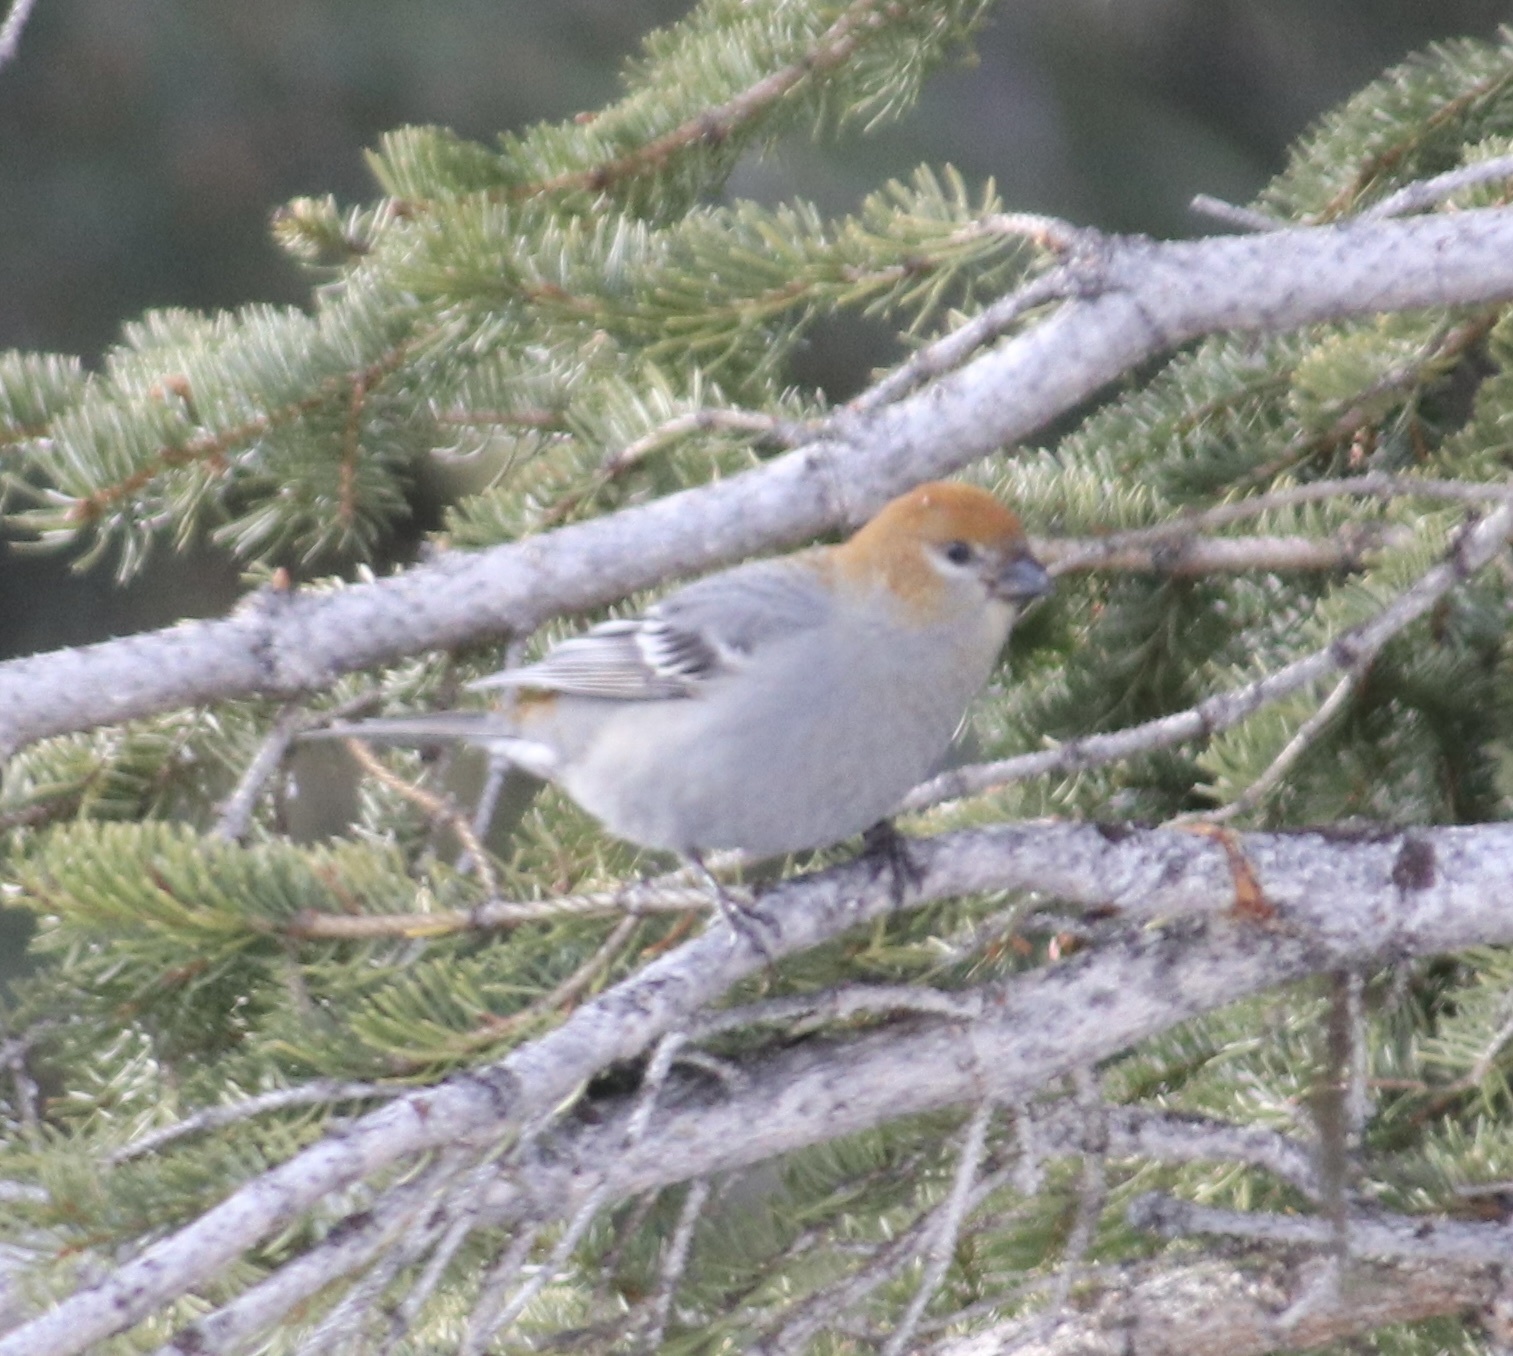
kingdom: Animalia
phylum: Chordata
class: Aves
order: Passeriformes
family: Fringillidae
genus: Pinicola
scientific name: Pinicola enucleator
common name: Pine grosbeak
